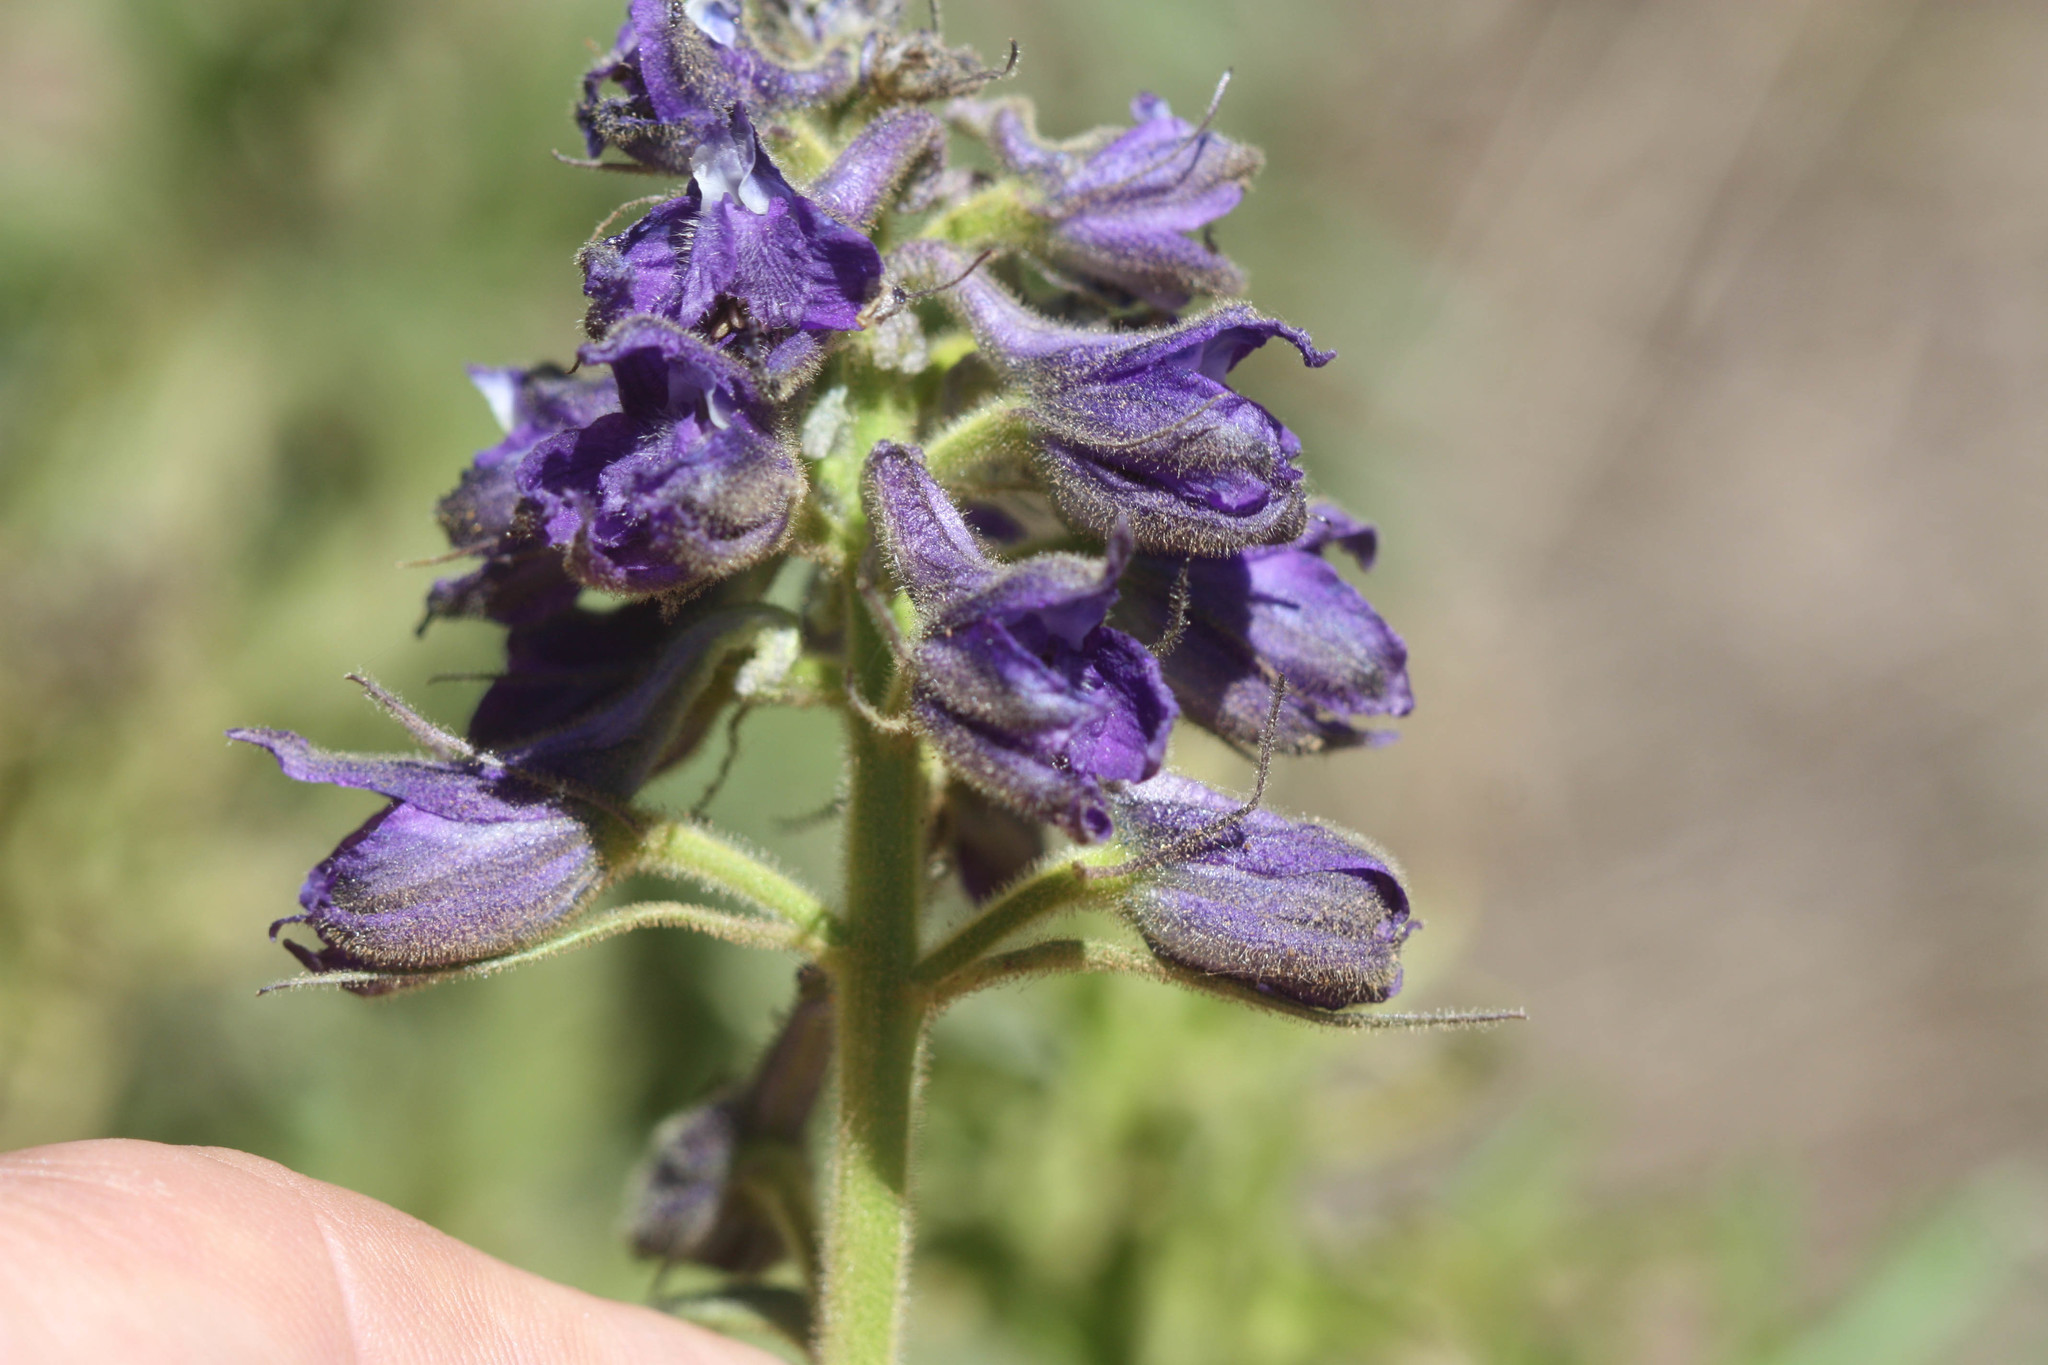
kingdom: Plantae
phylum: Tracheophyta
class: Magnoliopsida
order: Ranunculales
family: Ranunculaceae
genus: Delphinium
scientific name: Delphinium barbeyi
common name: Subalpine larkspur
